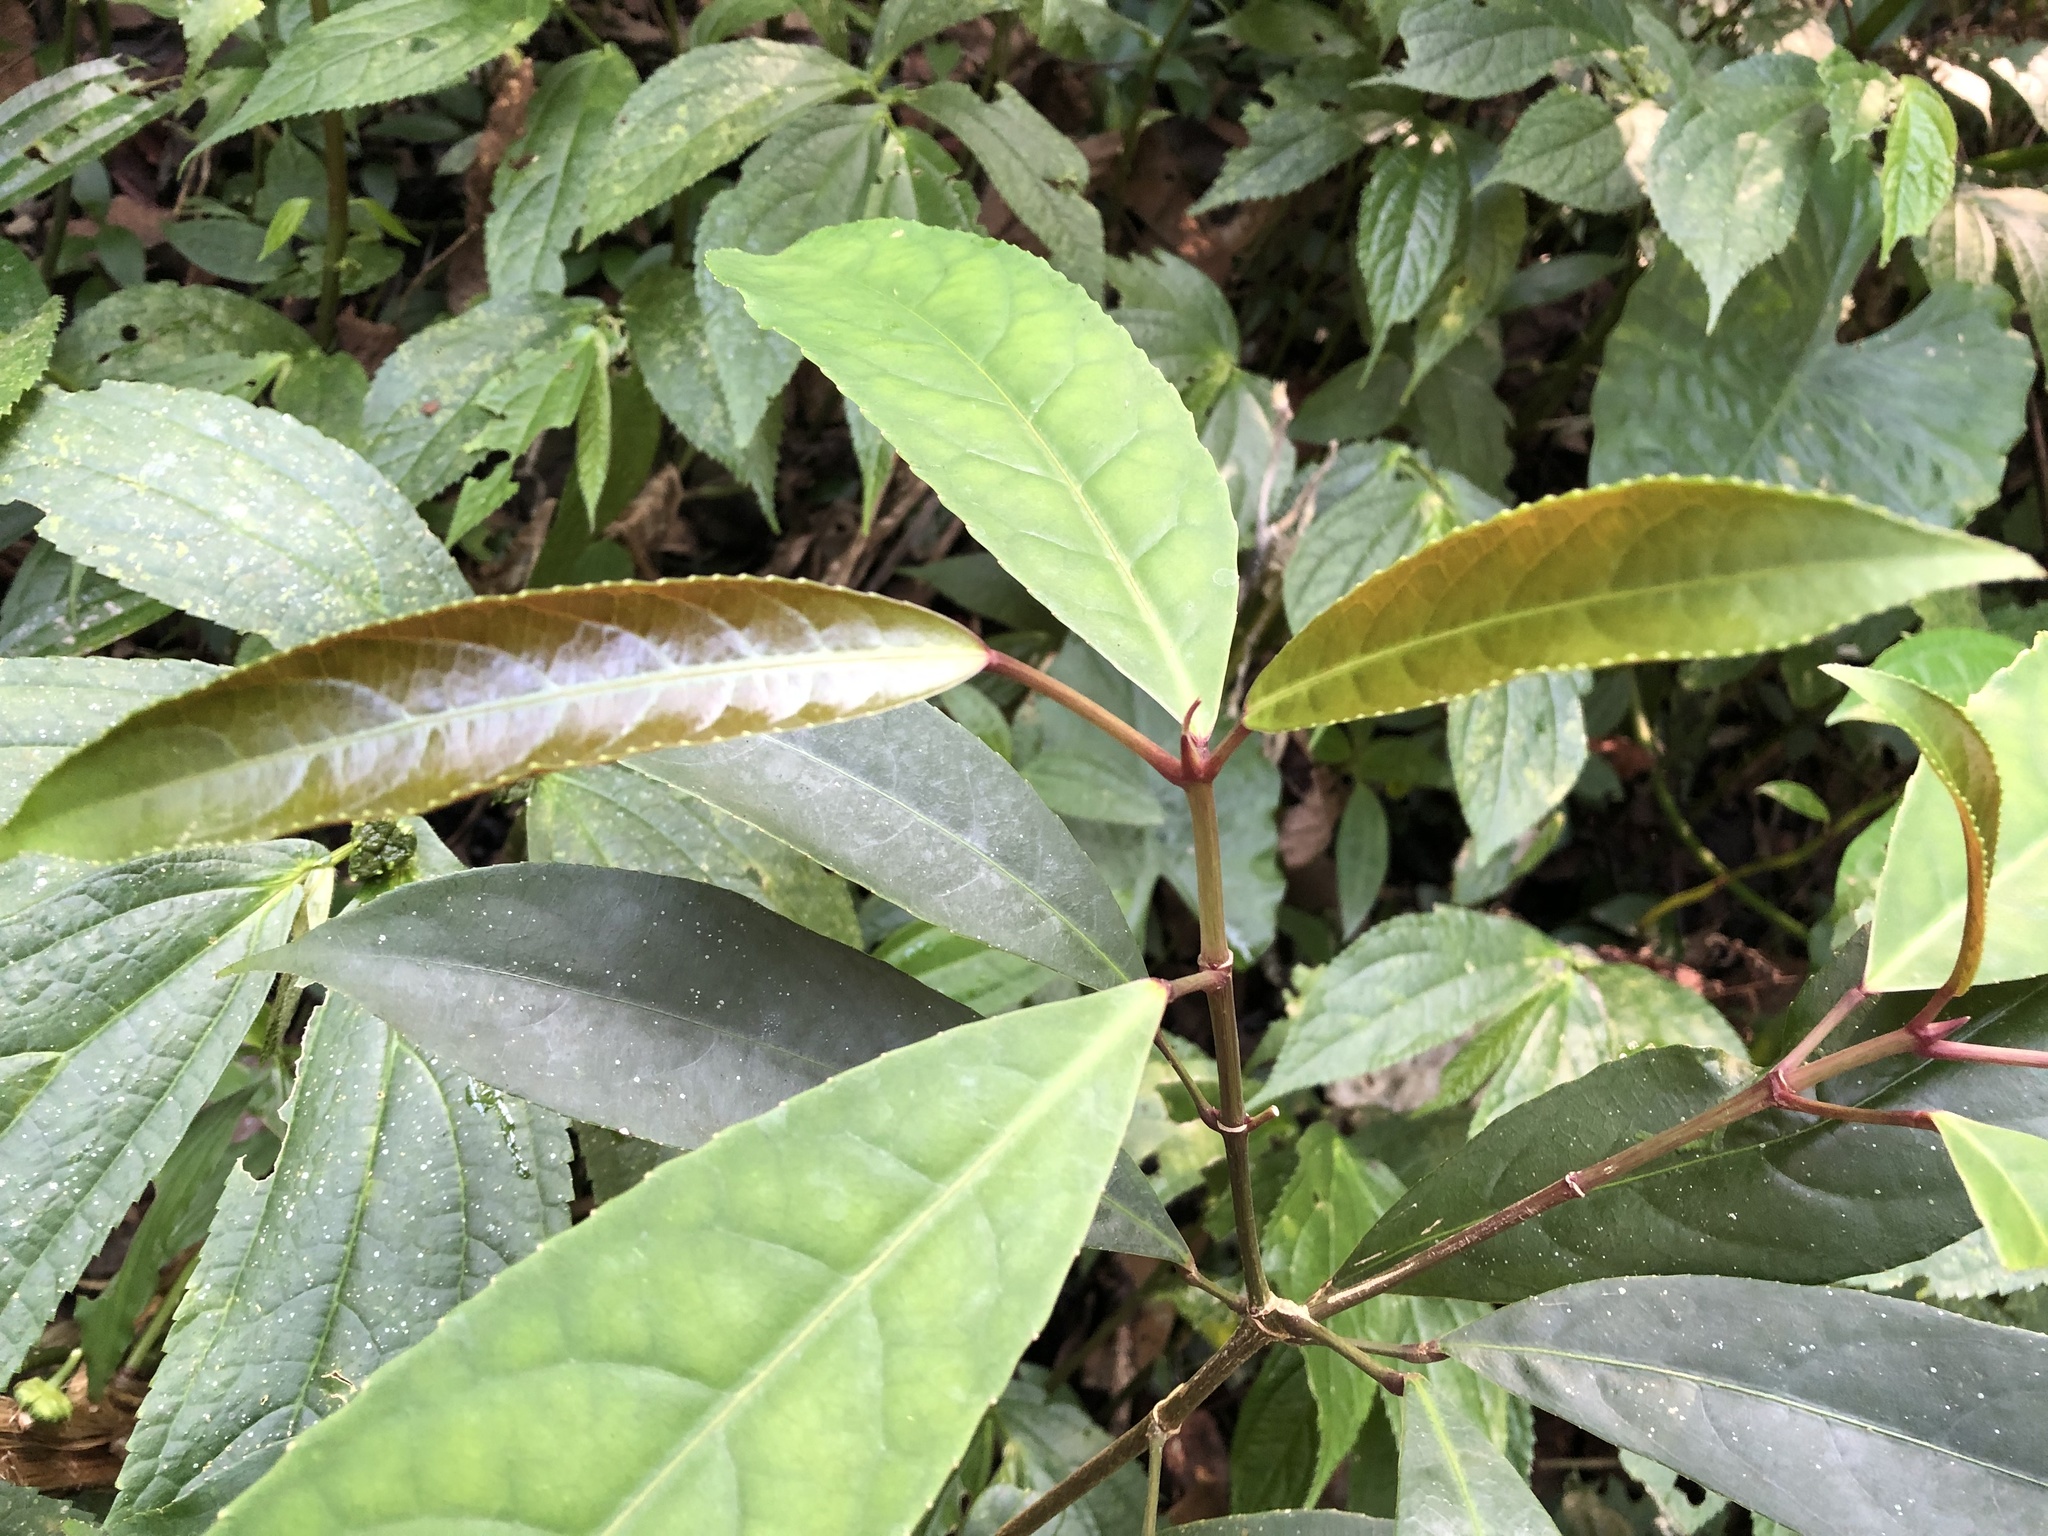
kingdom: Plantae
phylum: Tracheophyta
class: Magnoliopsida
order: Crossosomatales
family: Staphyleaceae
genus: Turpinia
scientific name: Turpinia formosana
